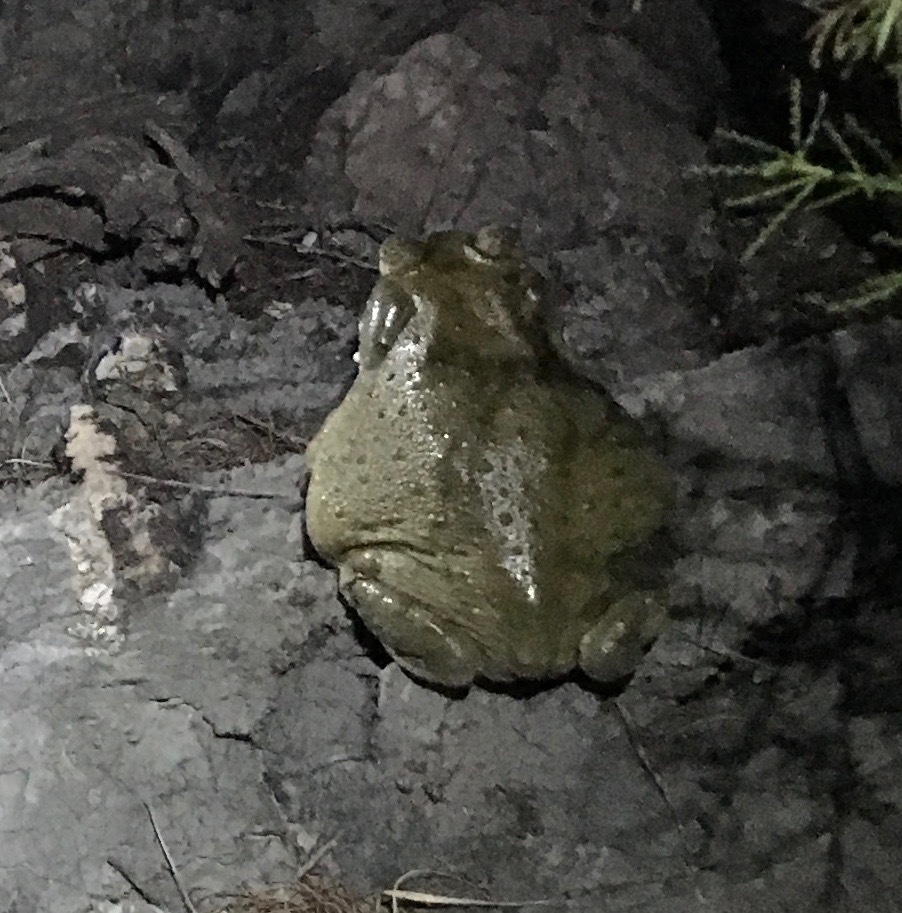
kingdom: Animalia
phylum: Chordata
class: Amphibia
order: Anura
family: Bufonidae
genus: Incilius
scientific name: Incilius alvarius
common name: Sonoran desert toad
